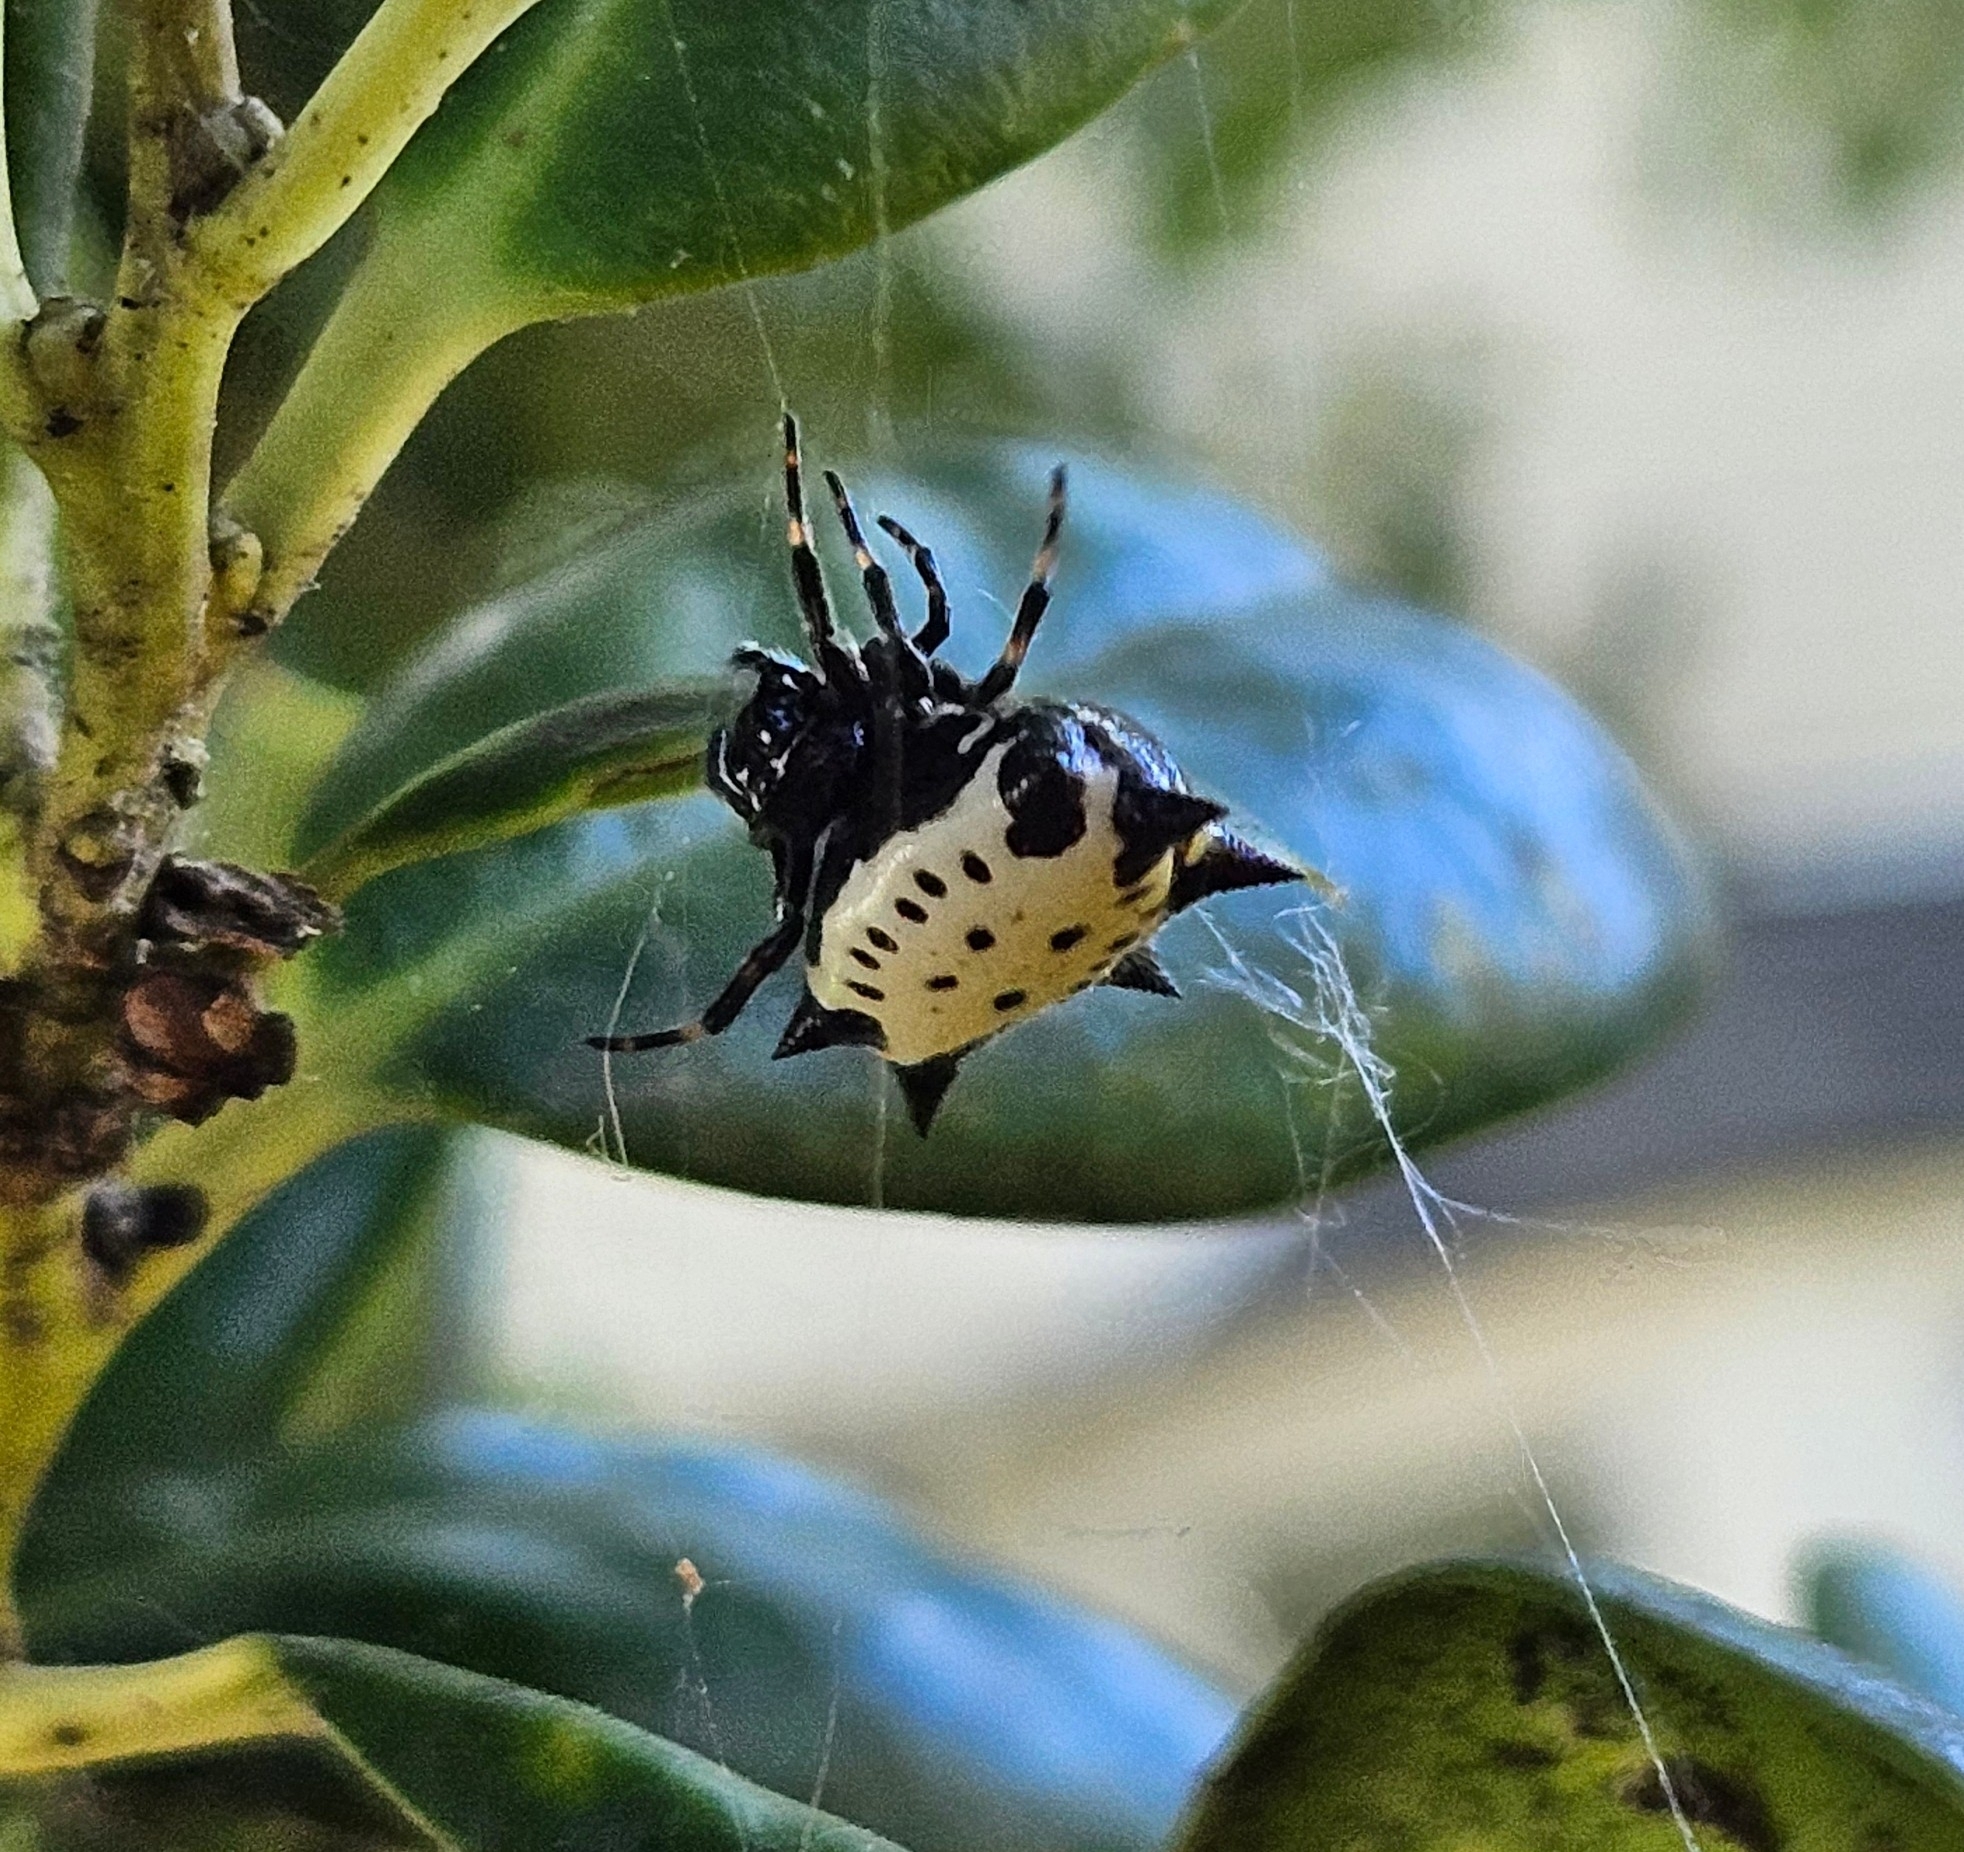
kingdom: Animalia
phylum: Arthropoda
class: Arachnida
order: Araneae
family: Araneidae
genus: Gasteracantha
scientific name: Gasteracantha cancriformis
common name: Orb weavers
